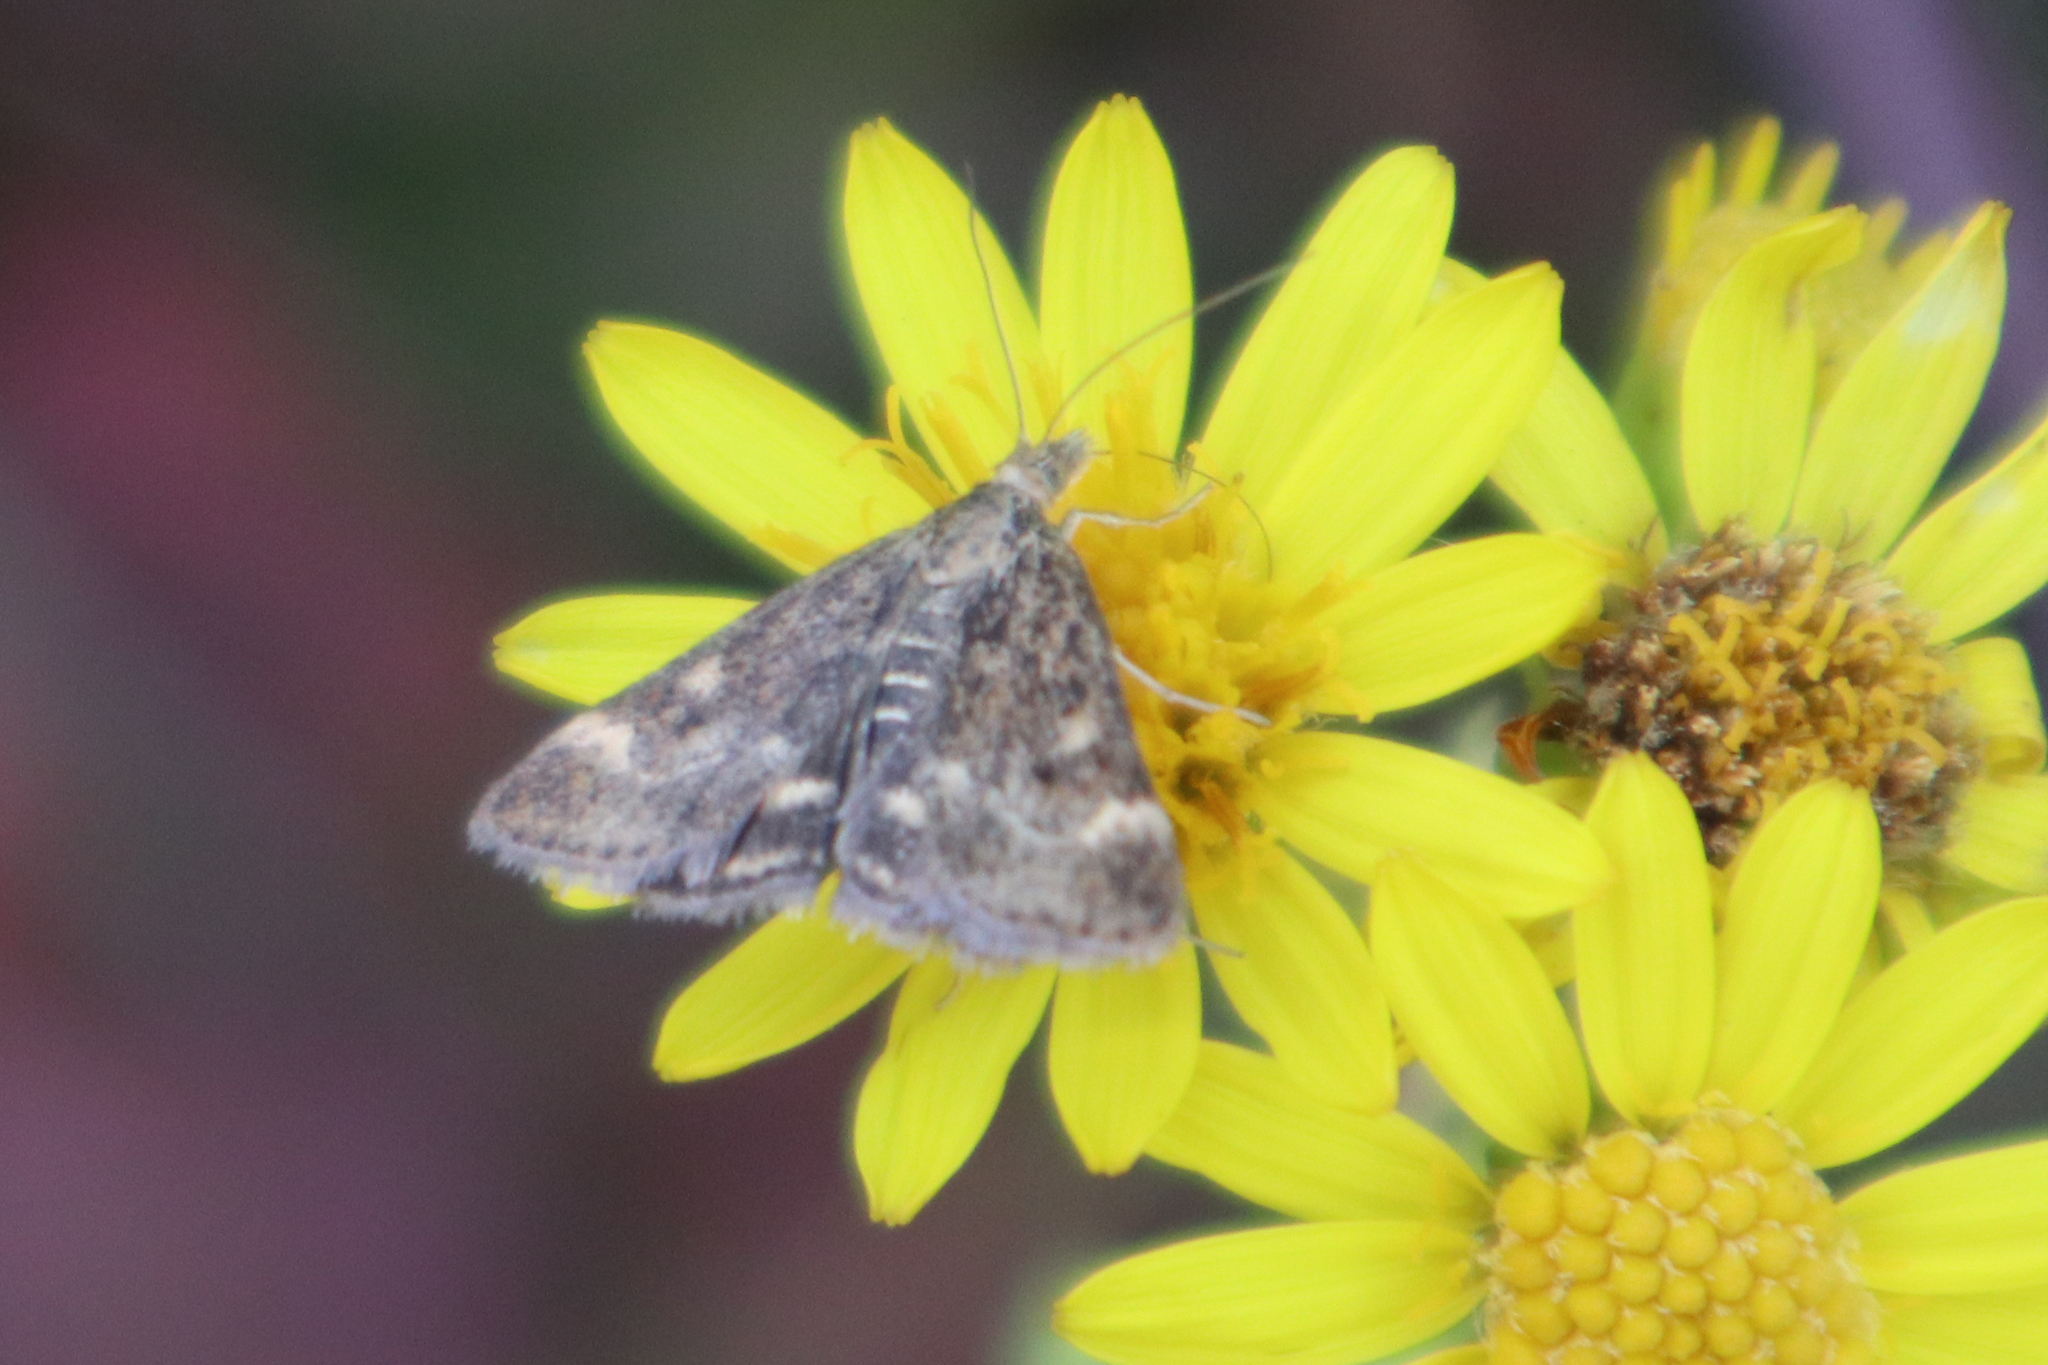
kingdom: Animalia
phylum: Arthropoda
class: Insecta
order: Lepidoptera
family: Crambidae
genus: Pyrausta
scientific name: Pyrausta despicata
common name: Straw-barred pearl
